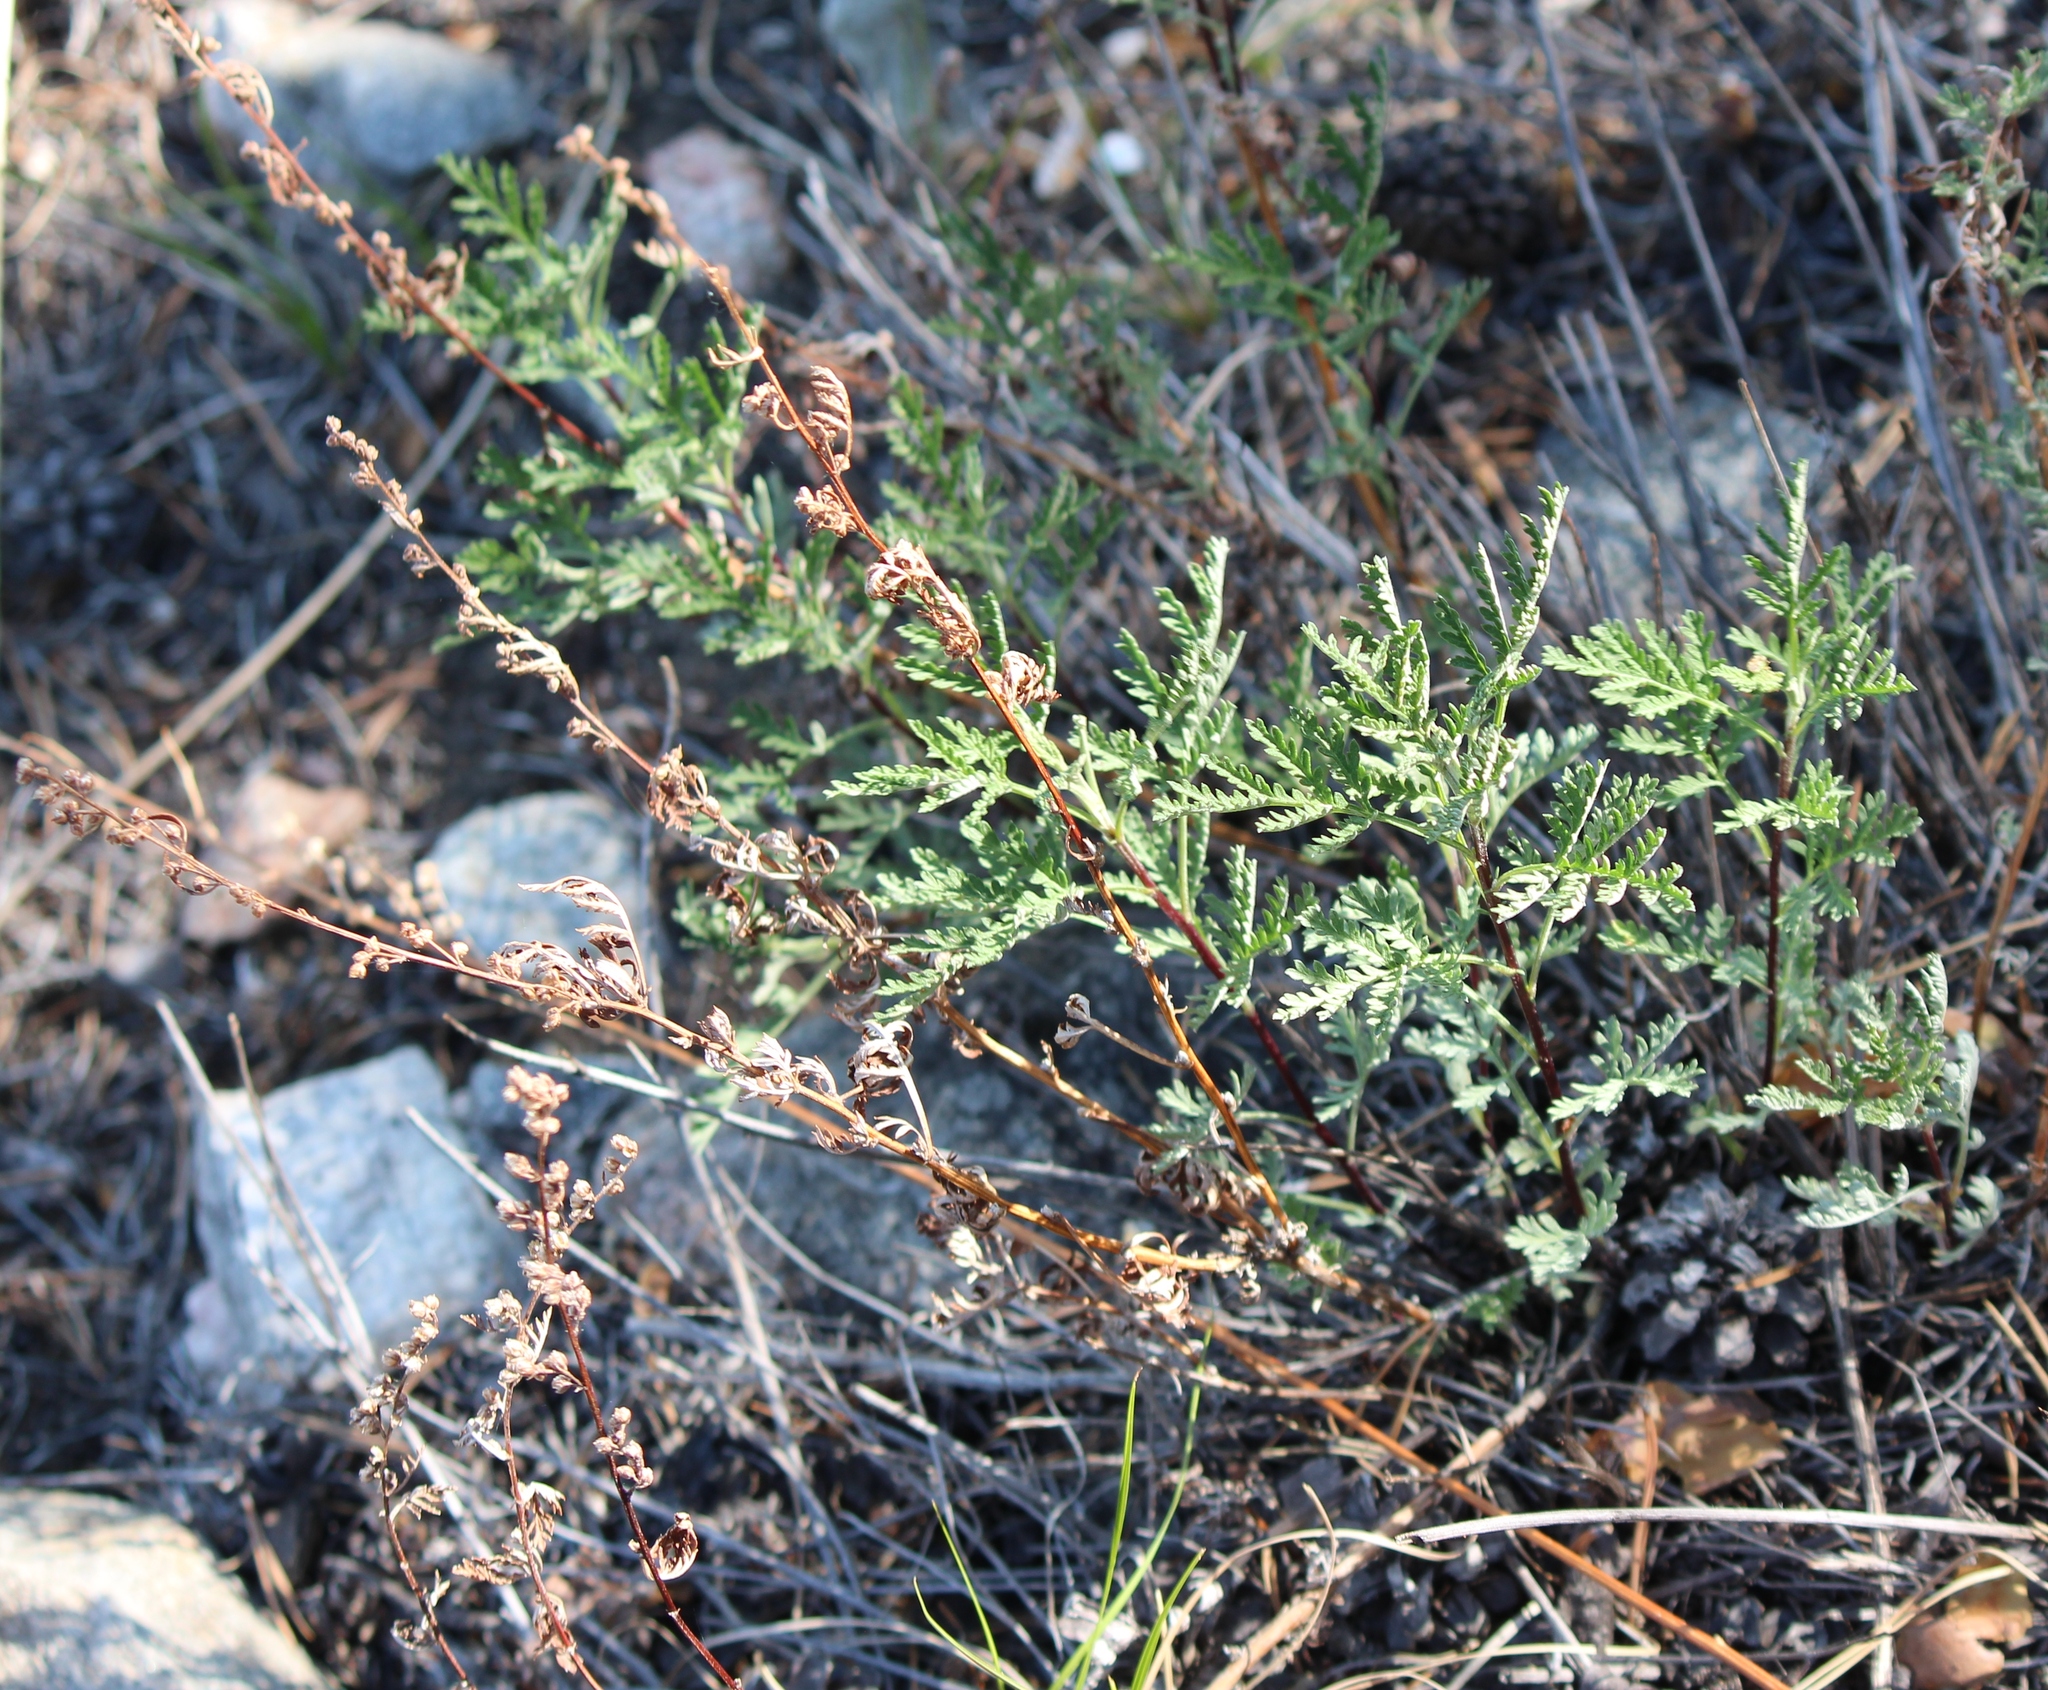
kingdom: Plantae
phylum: Tracheophyta
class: Magnoliopsida
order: Asterales
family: Asteraceae
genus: Artemisia
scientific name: Artemisia gmelinii
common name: Gmelin's wormwood
